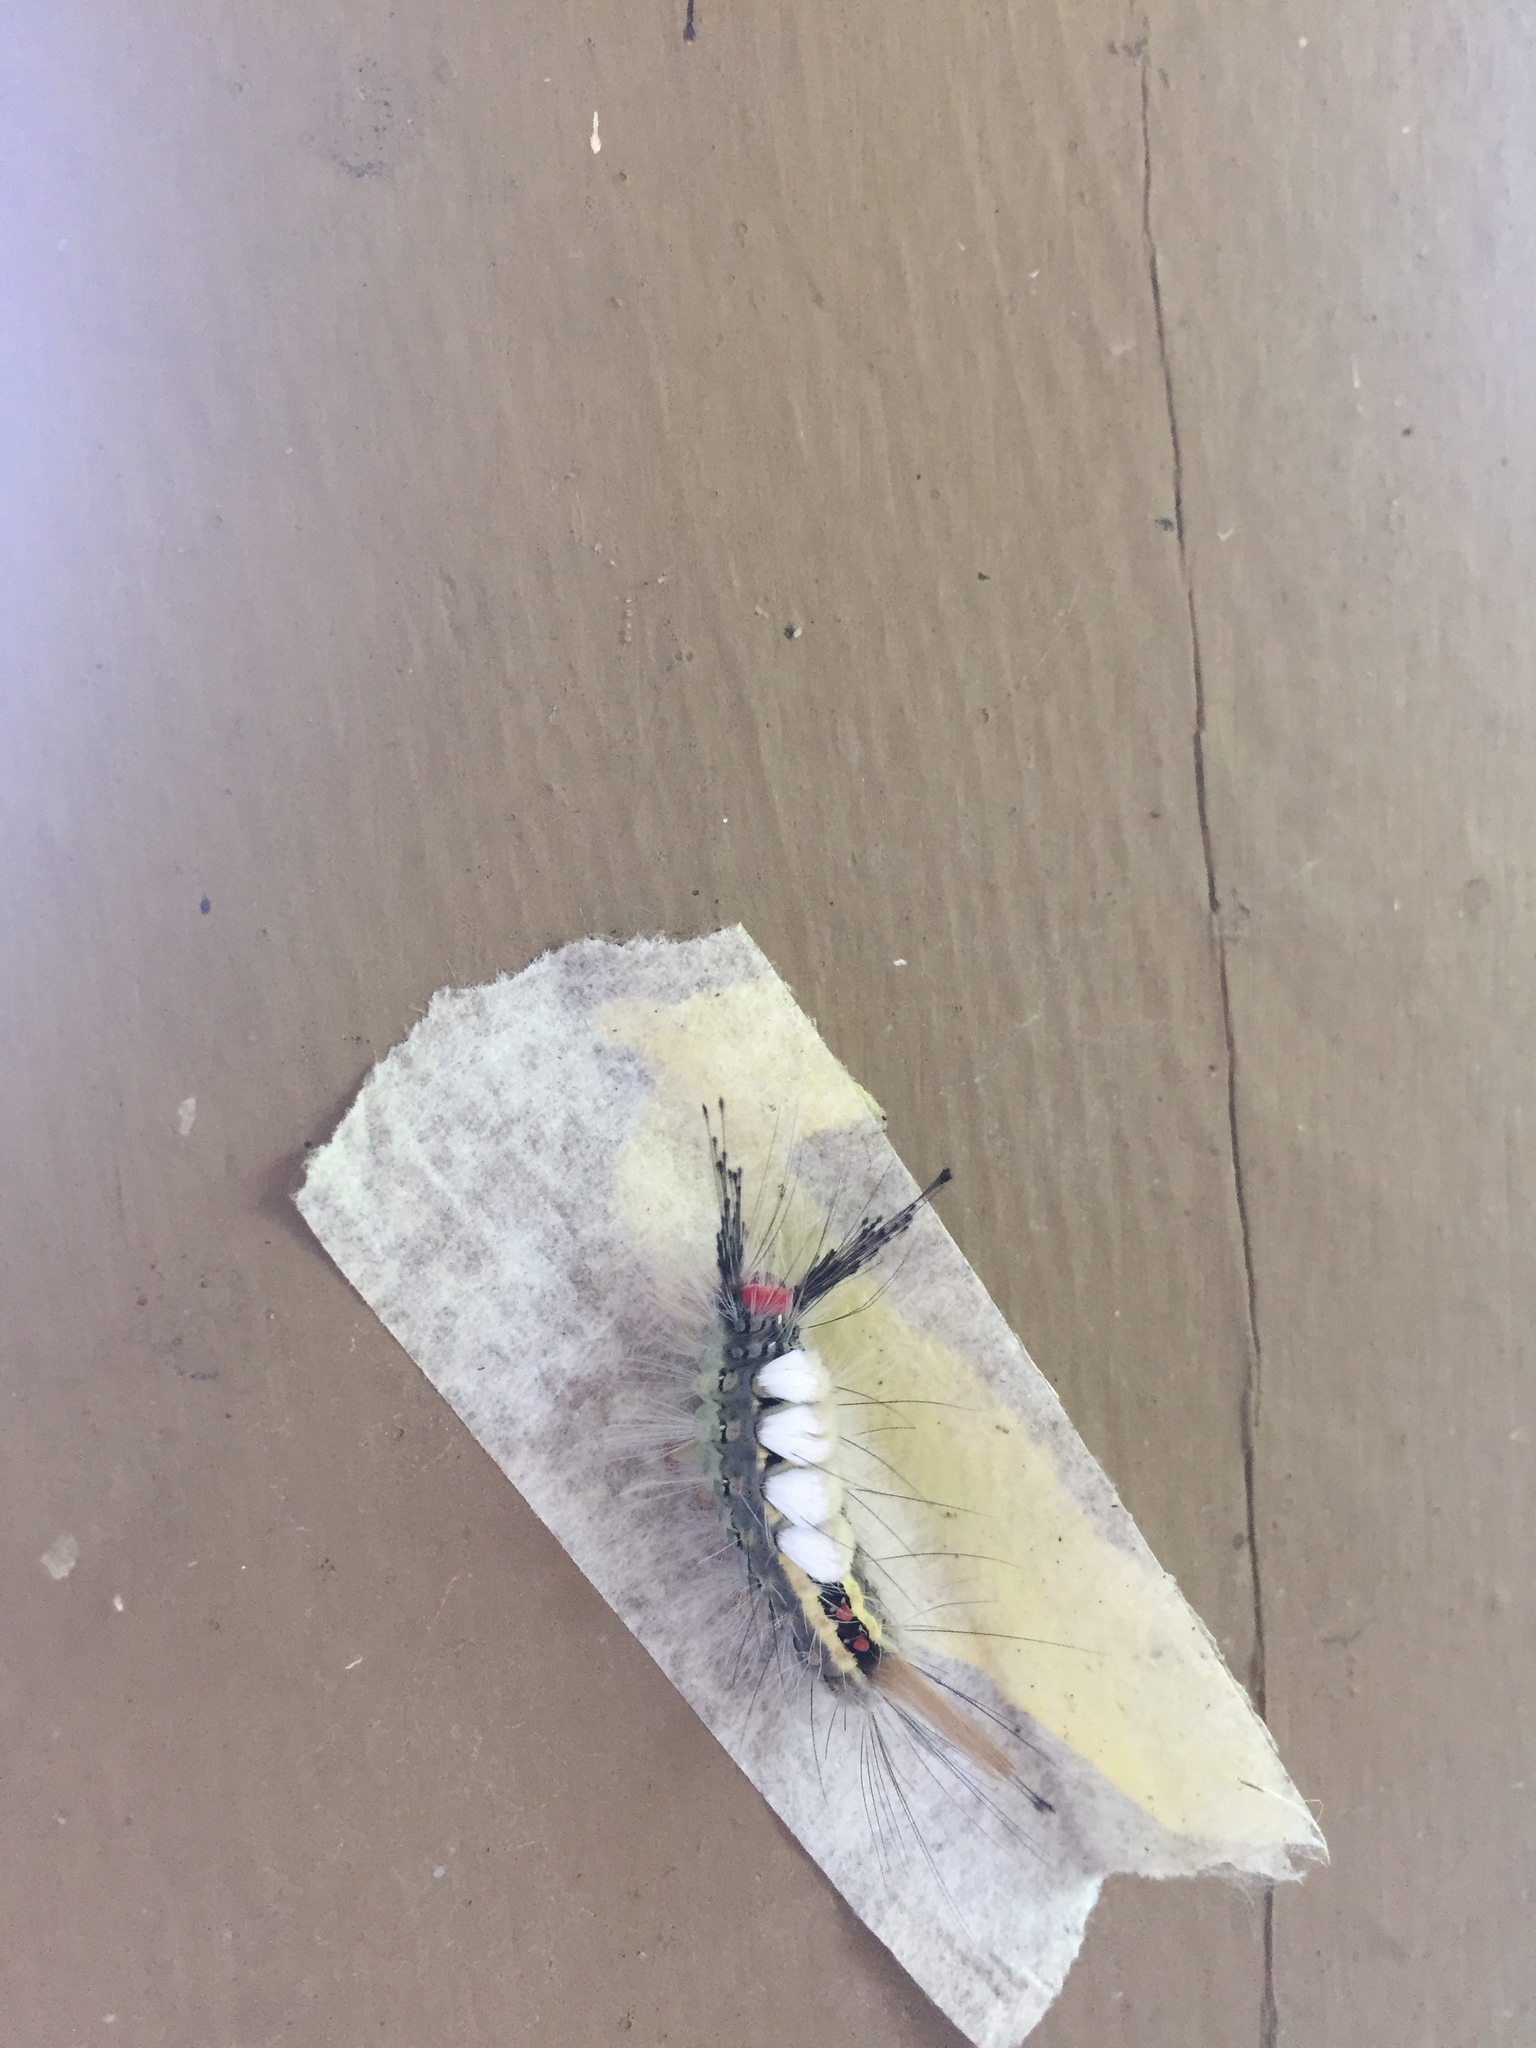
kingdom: Animalia
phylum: Arthropoda
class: Insecta
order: Lepidoptera
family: Erebidae
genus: Orgyia
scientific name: Orgyia leucostigma
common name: White-marked tussock moth
